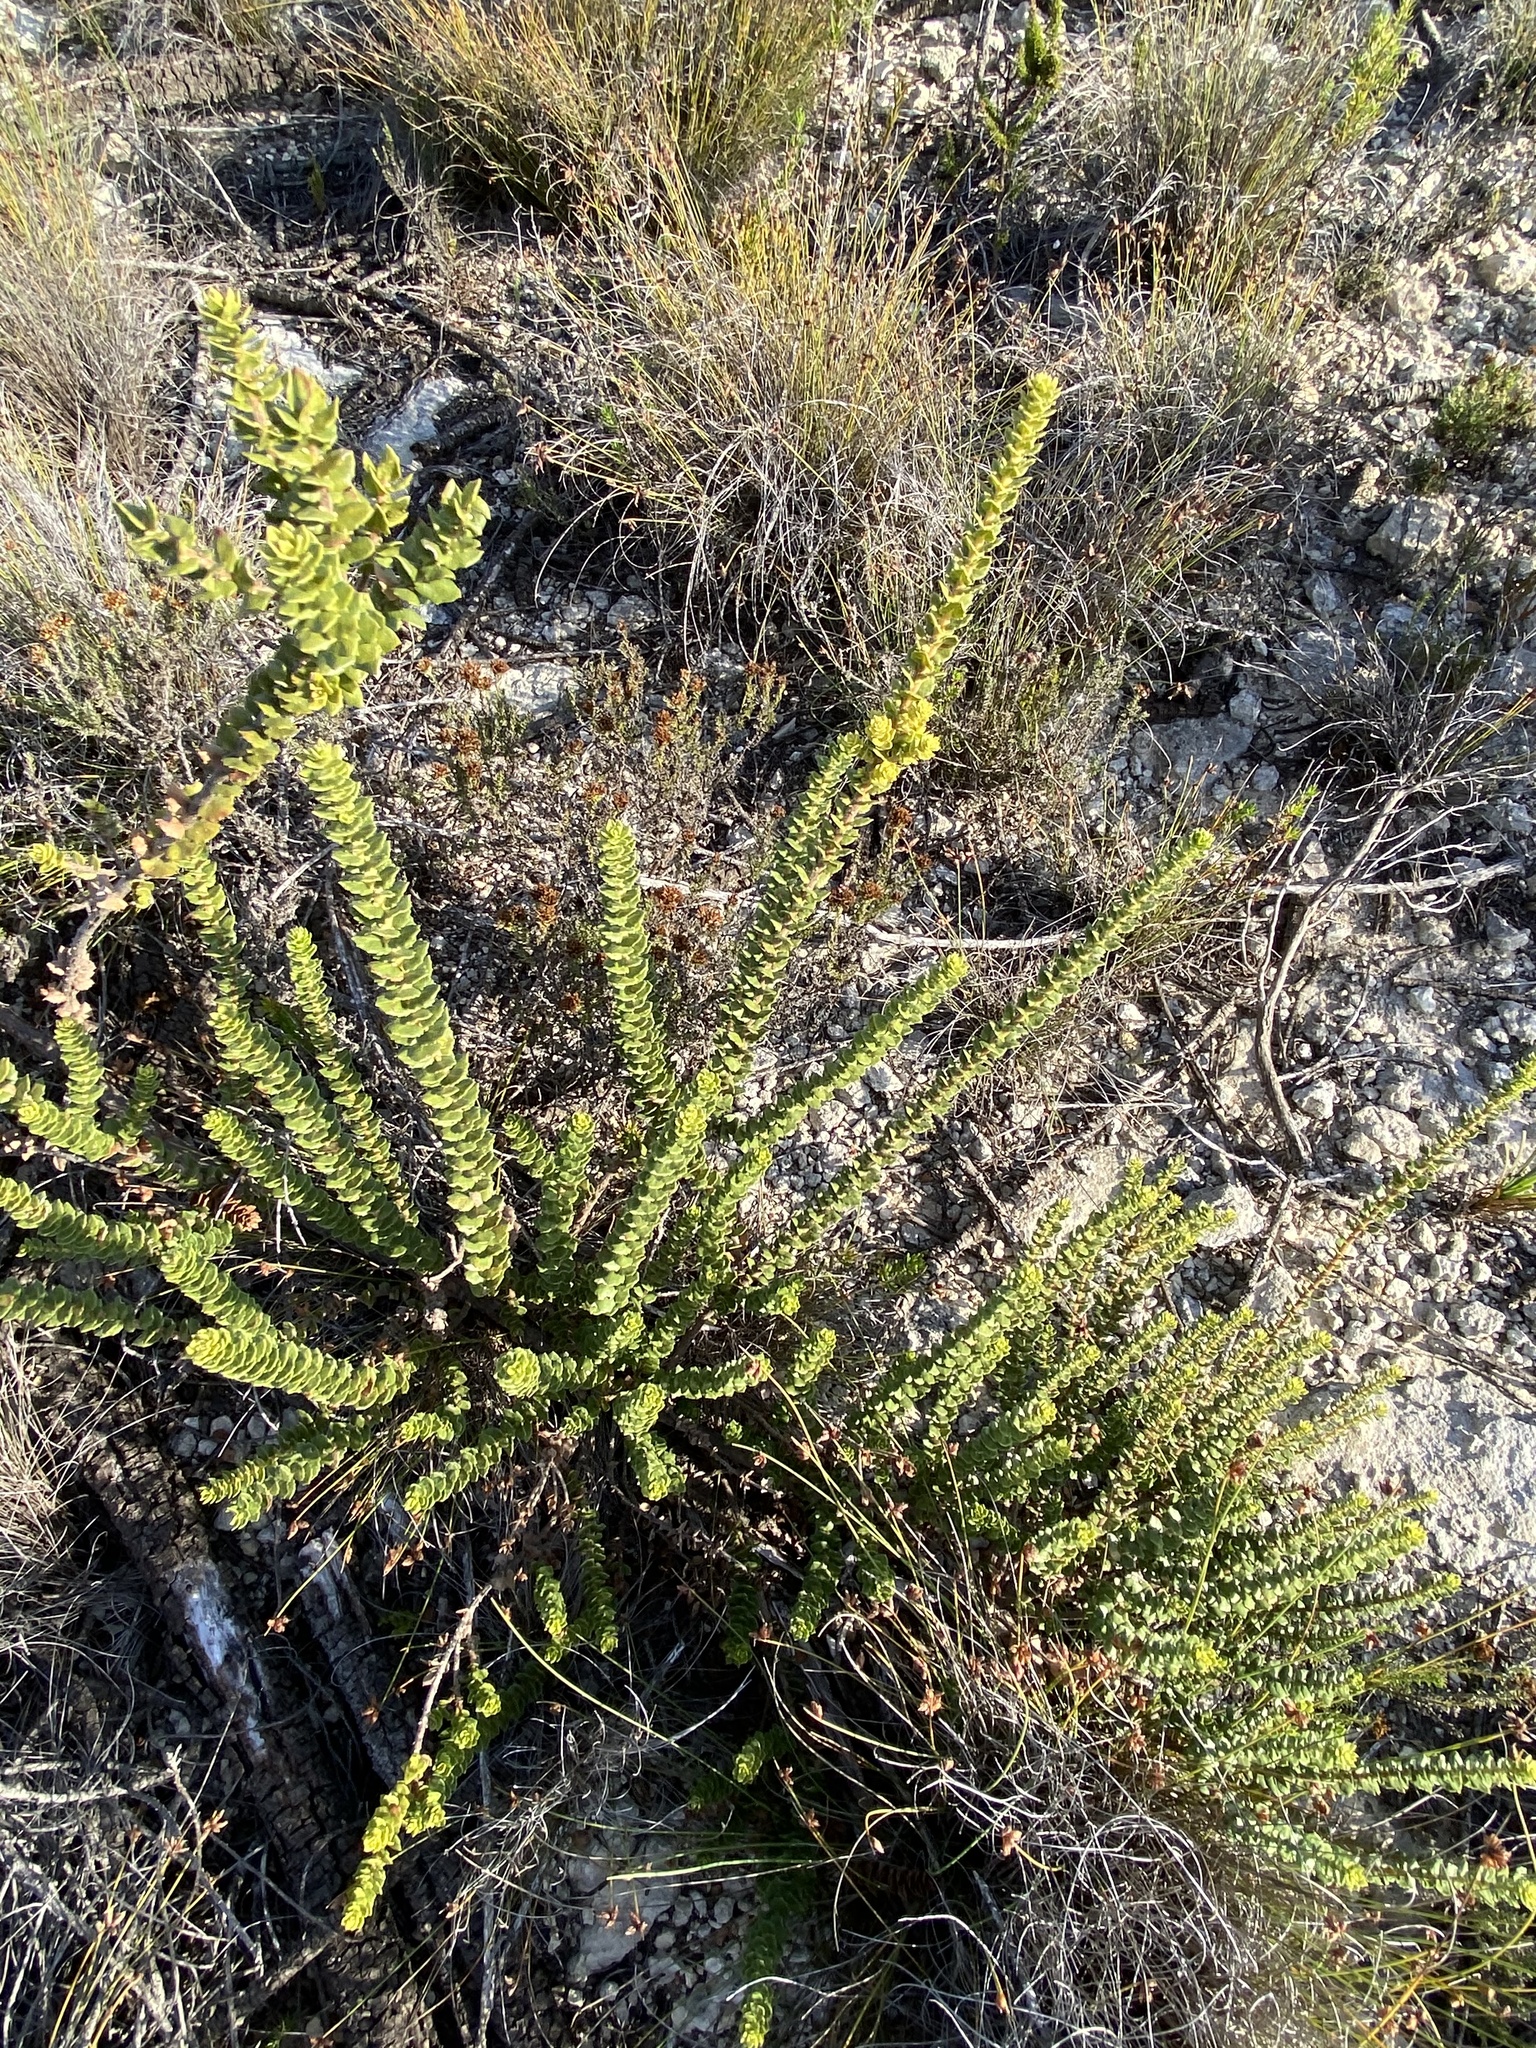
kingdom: Plantae
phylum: Tracheophyta
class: Magnoliopsida
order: Fagales
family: Myricaceae
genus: Morella
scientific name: Morella cordifolia
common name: Waxberry
